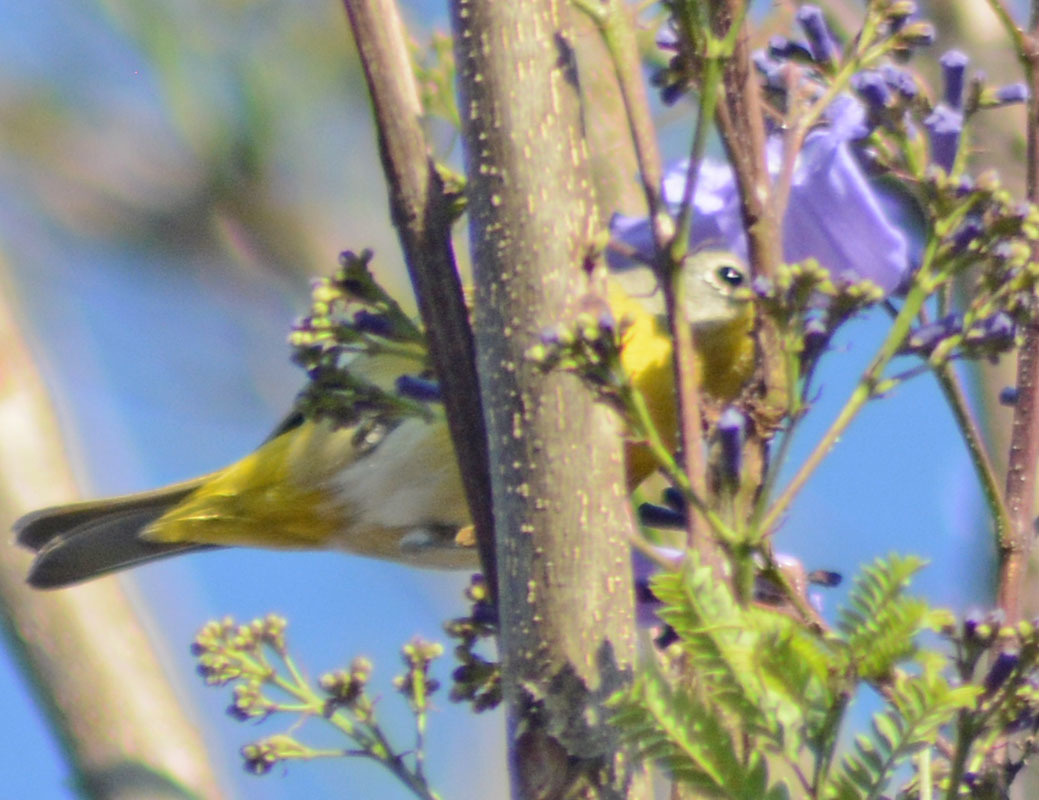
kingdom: Animalia
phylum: Chordata
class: Aves
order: Passeriformes
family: Parulidae
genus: Leiothlypis
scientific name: Leiothlypis ruficapilla
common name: Nashville warbler
